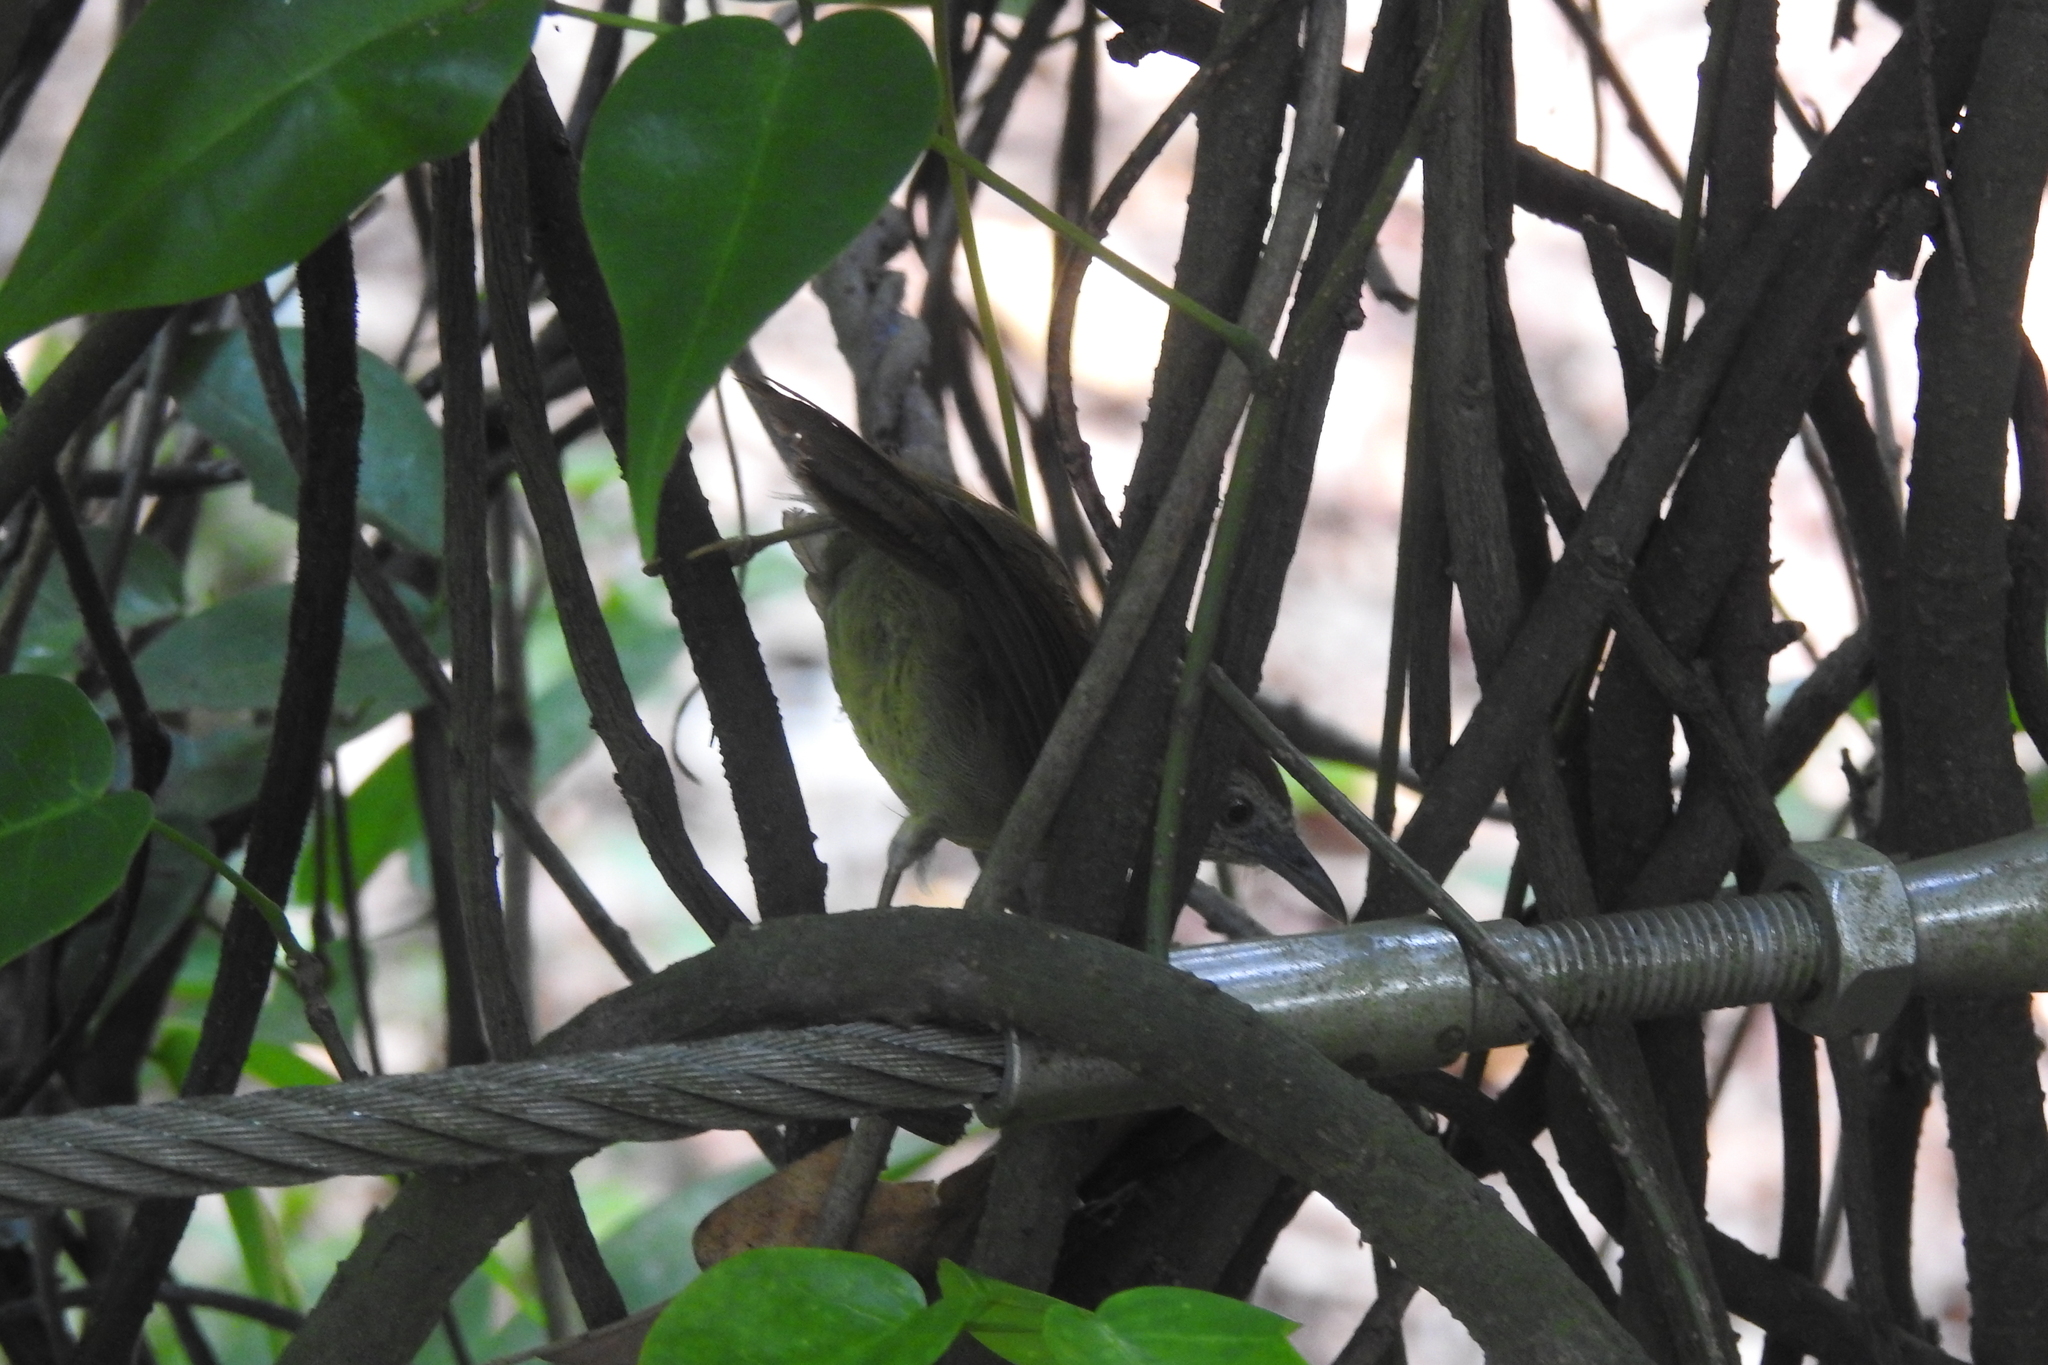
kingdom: Animalia
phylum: Chordata
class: Aves
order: Passeriformes
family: Timaliidae
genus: Macronus
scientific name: Macronus gularis
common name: Striped tit-babbler
